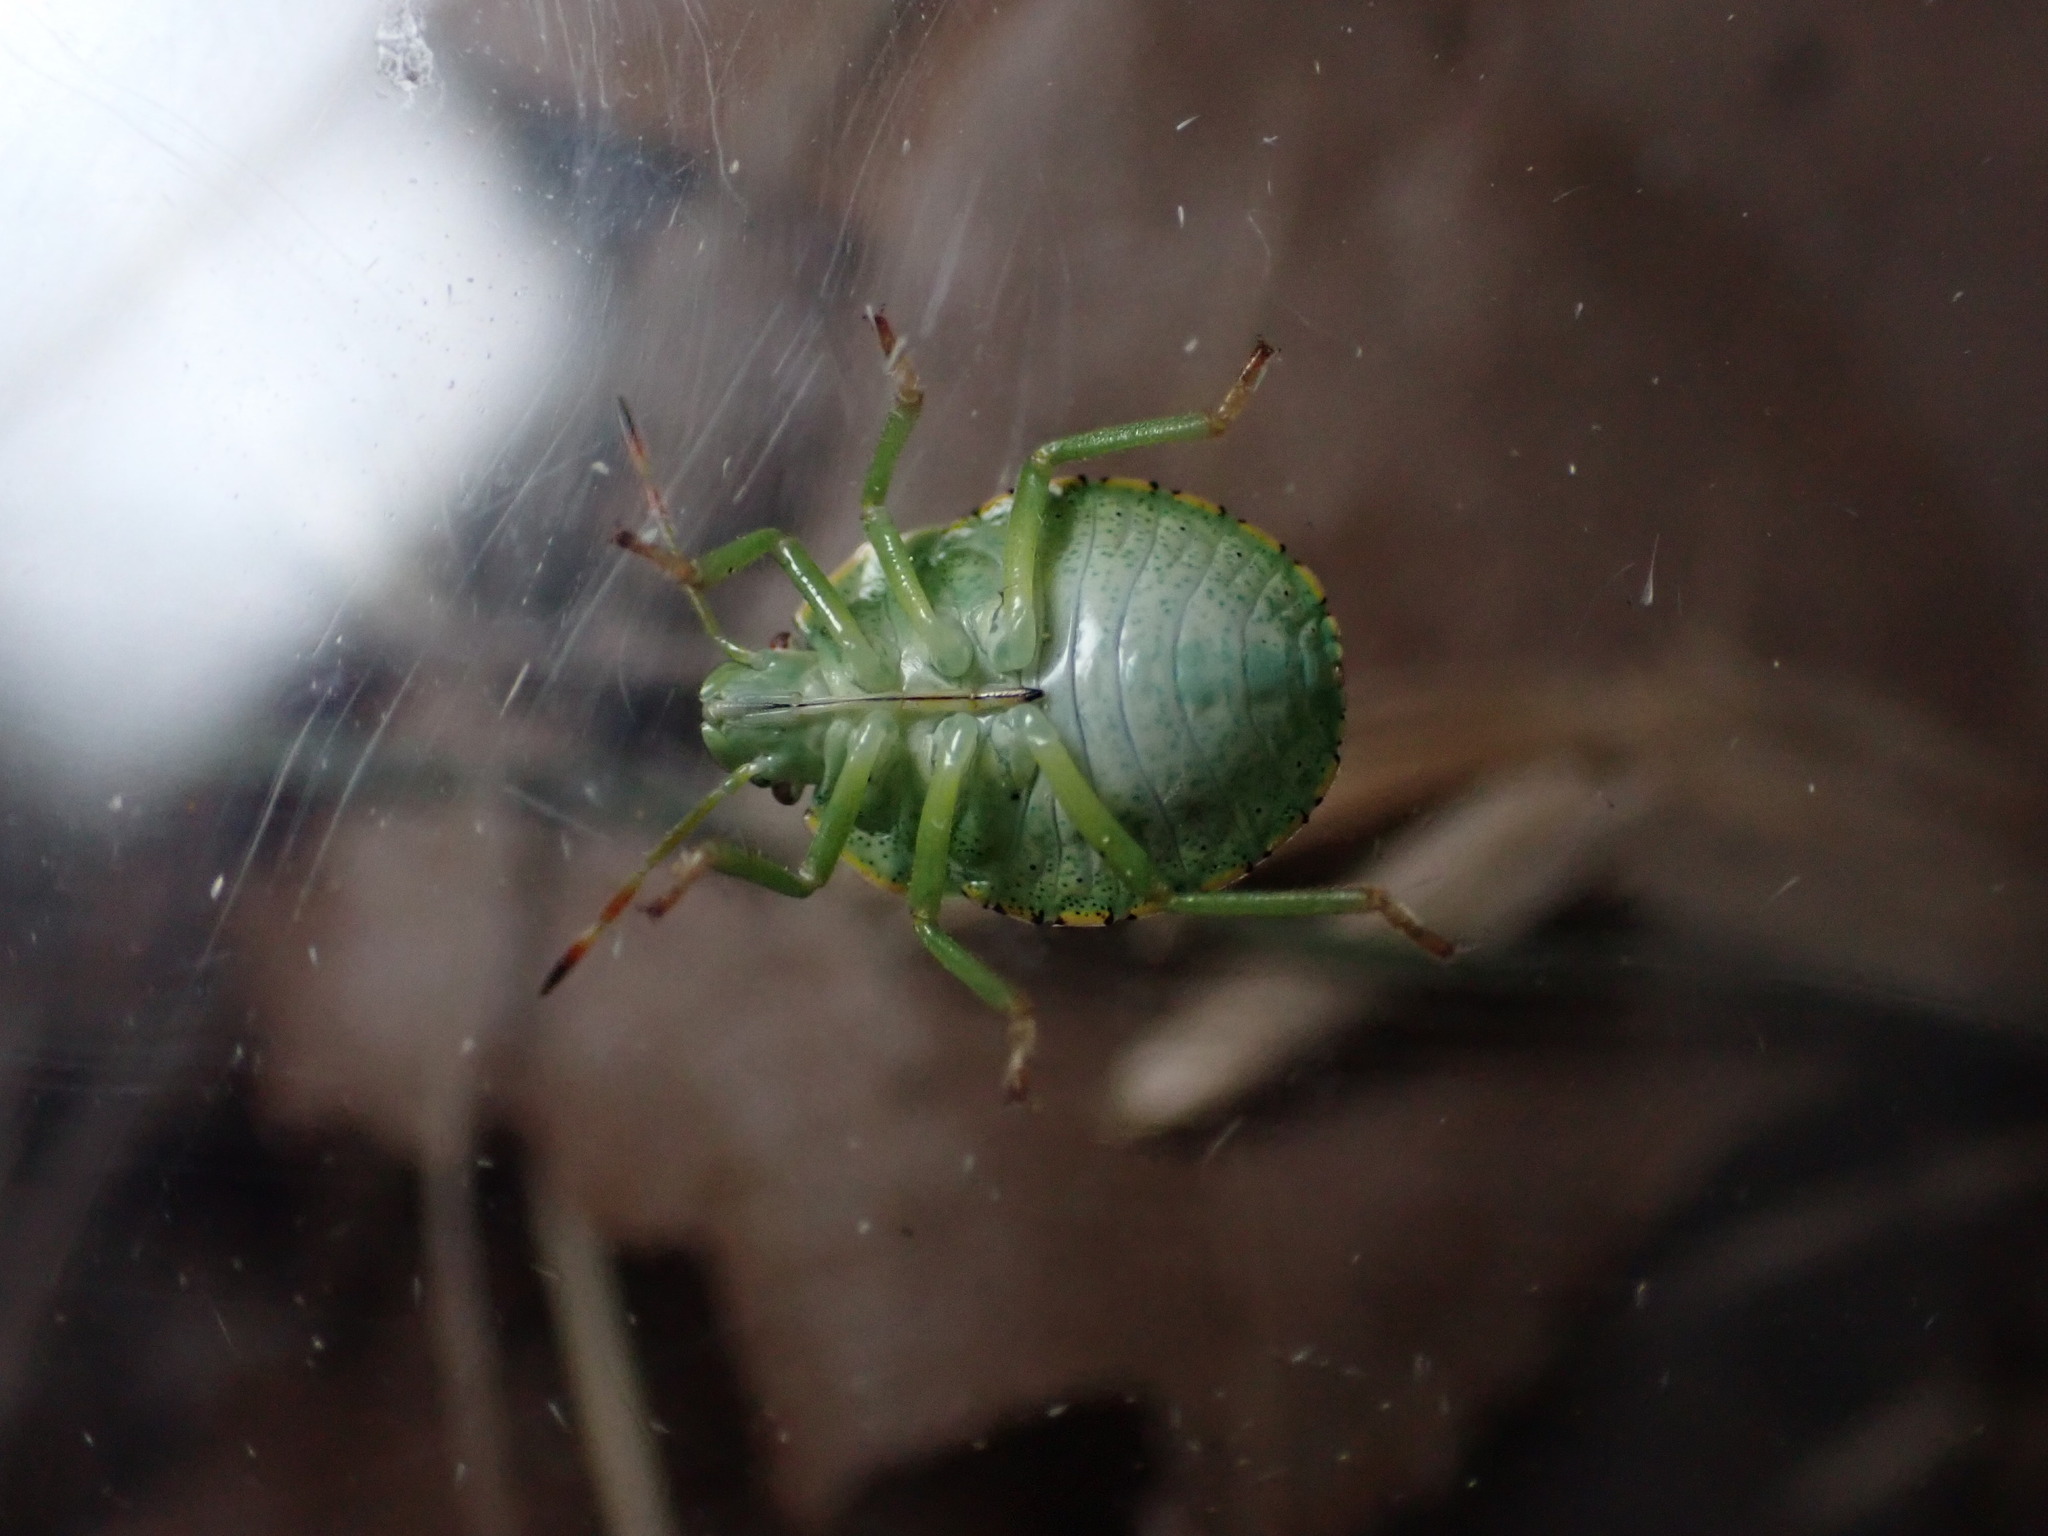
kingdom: Animalia
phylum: Arthropoda
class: Insecta
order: Hemiptera
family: Pentatomidae
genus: Palomena
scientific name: Palomena prasina
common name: Green shieldbug
